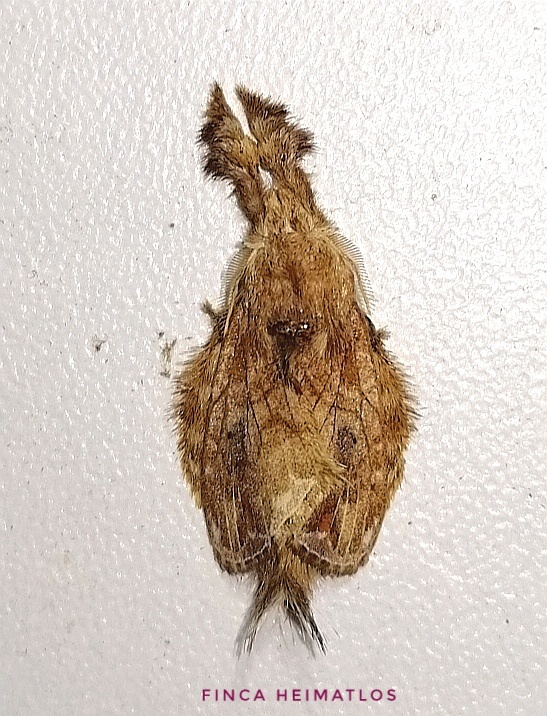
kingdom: Animalia
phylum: Arthropoda
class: Insecta
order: Lepidoptera
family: Lasiocampidae
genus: Nesara
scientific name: Nesara caramina
